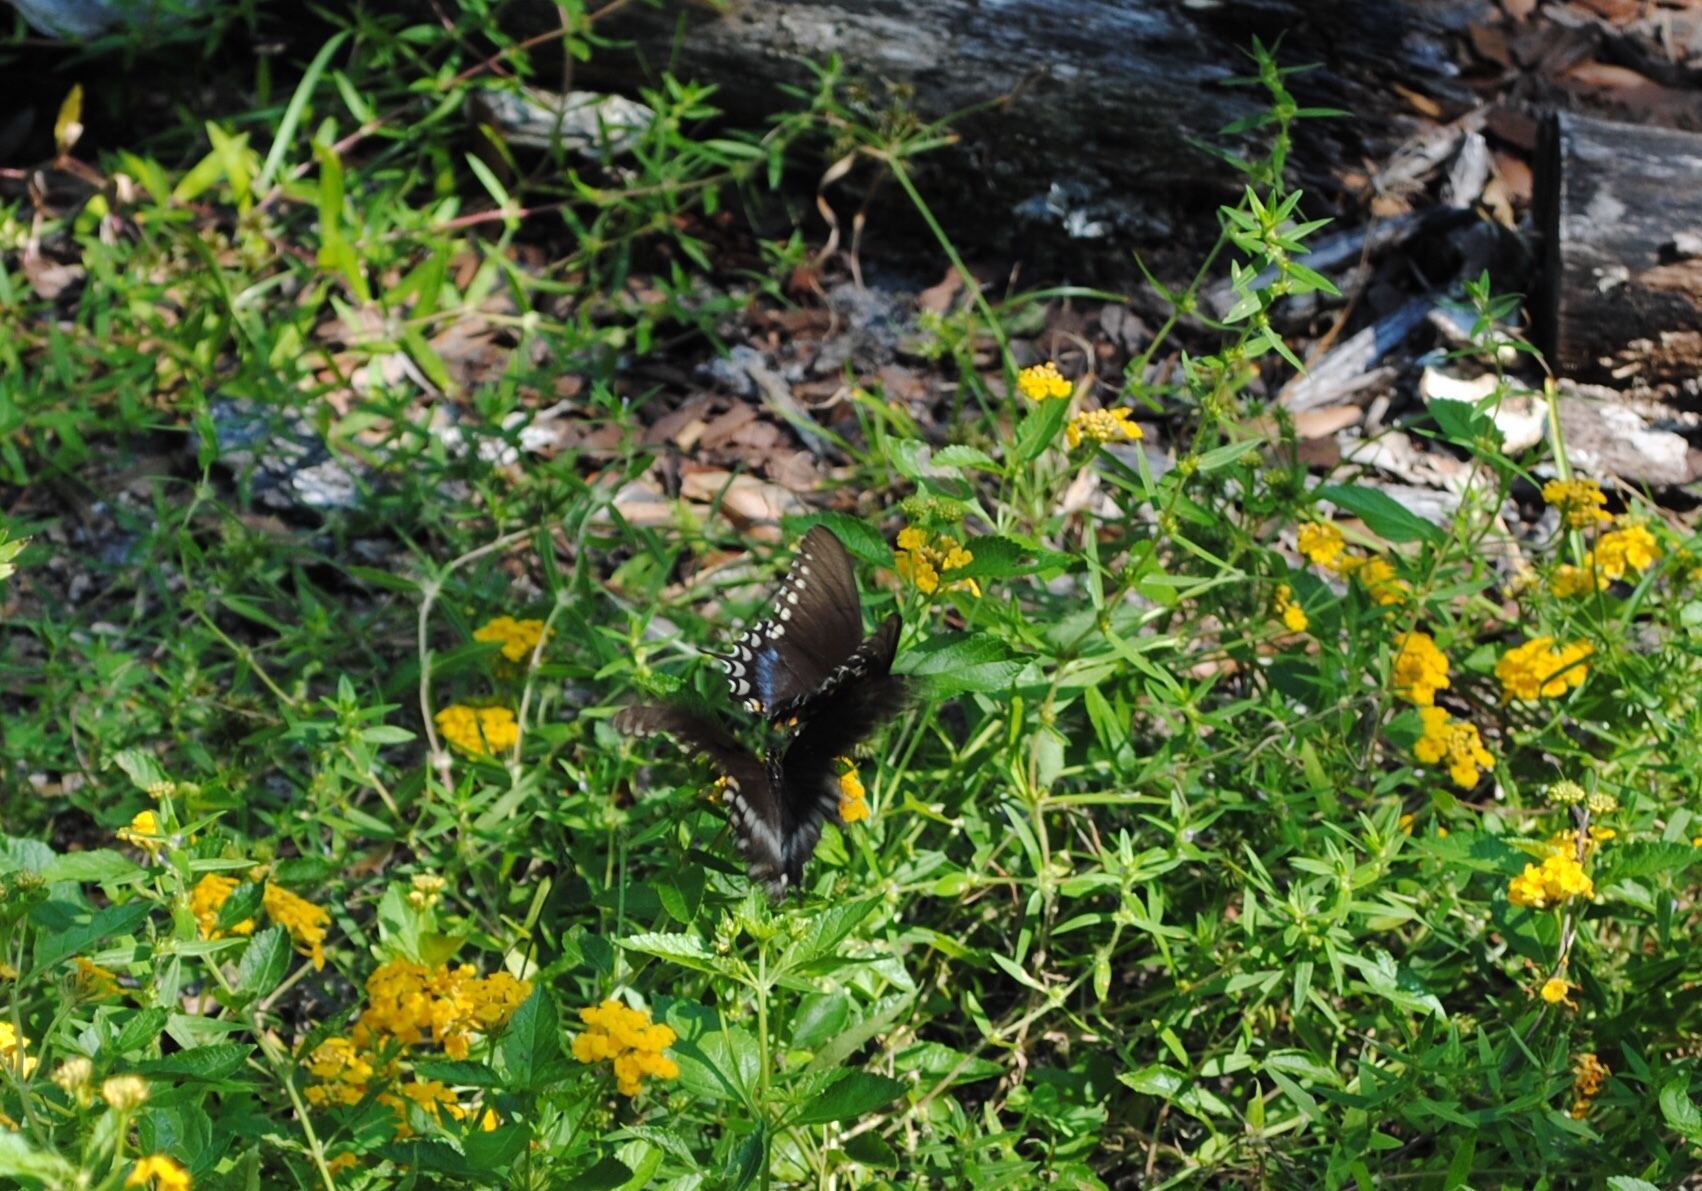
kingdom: Animalia
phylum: Arthropoda
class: Insecta
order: Lepidoptera
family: Papilionidae
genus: Papilio
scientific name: Papilio troilus
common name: Spicebush swallowtail
